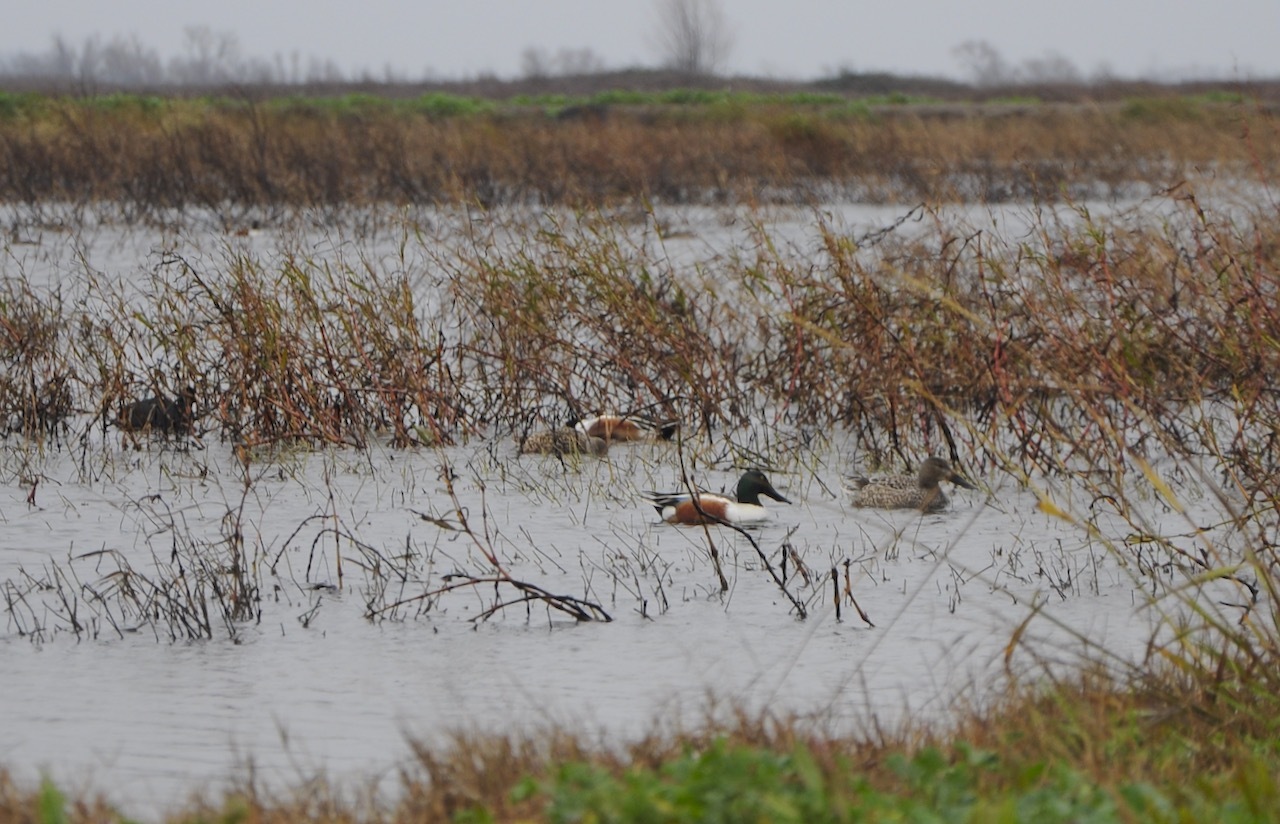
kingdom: Animalia
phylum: Chordata
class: Aves
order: Anseriformes
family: Anatidae
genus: Spatula
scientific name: Spatula clypeata
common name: Northern shoveler
